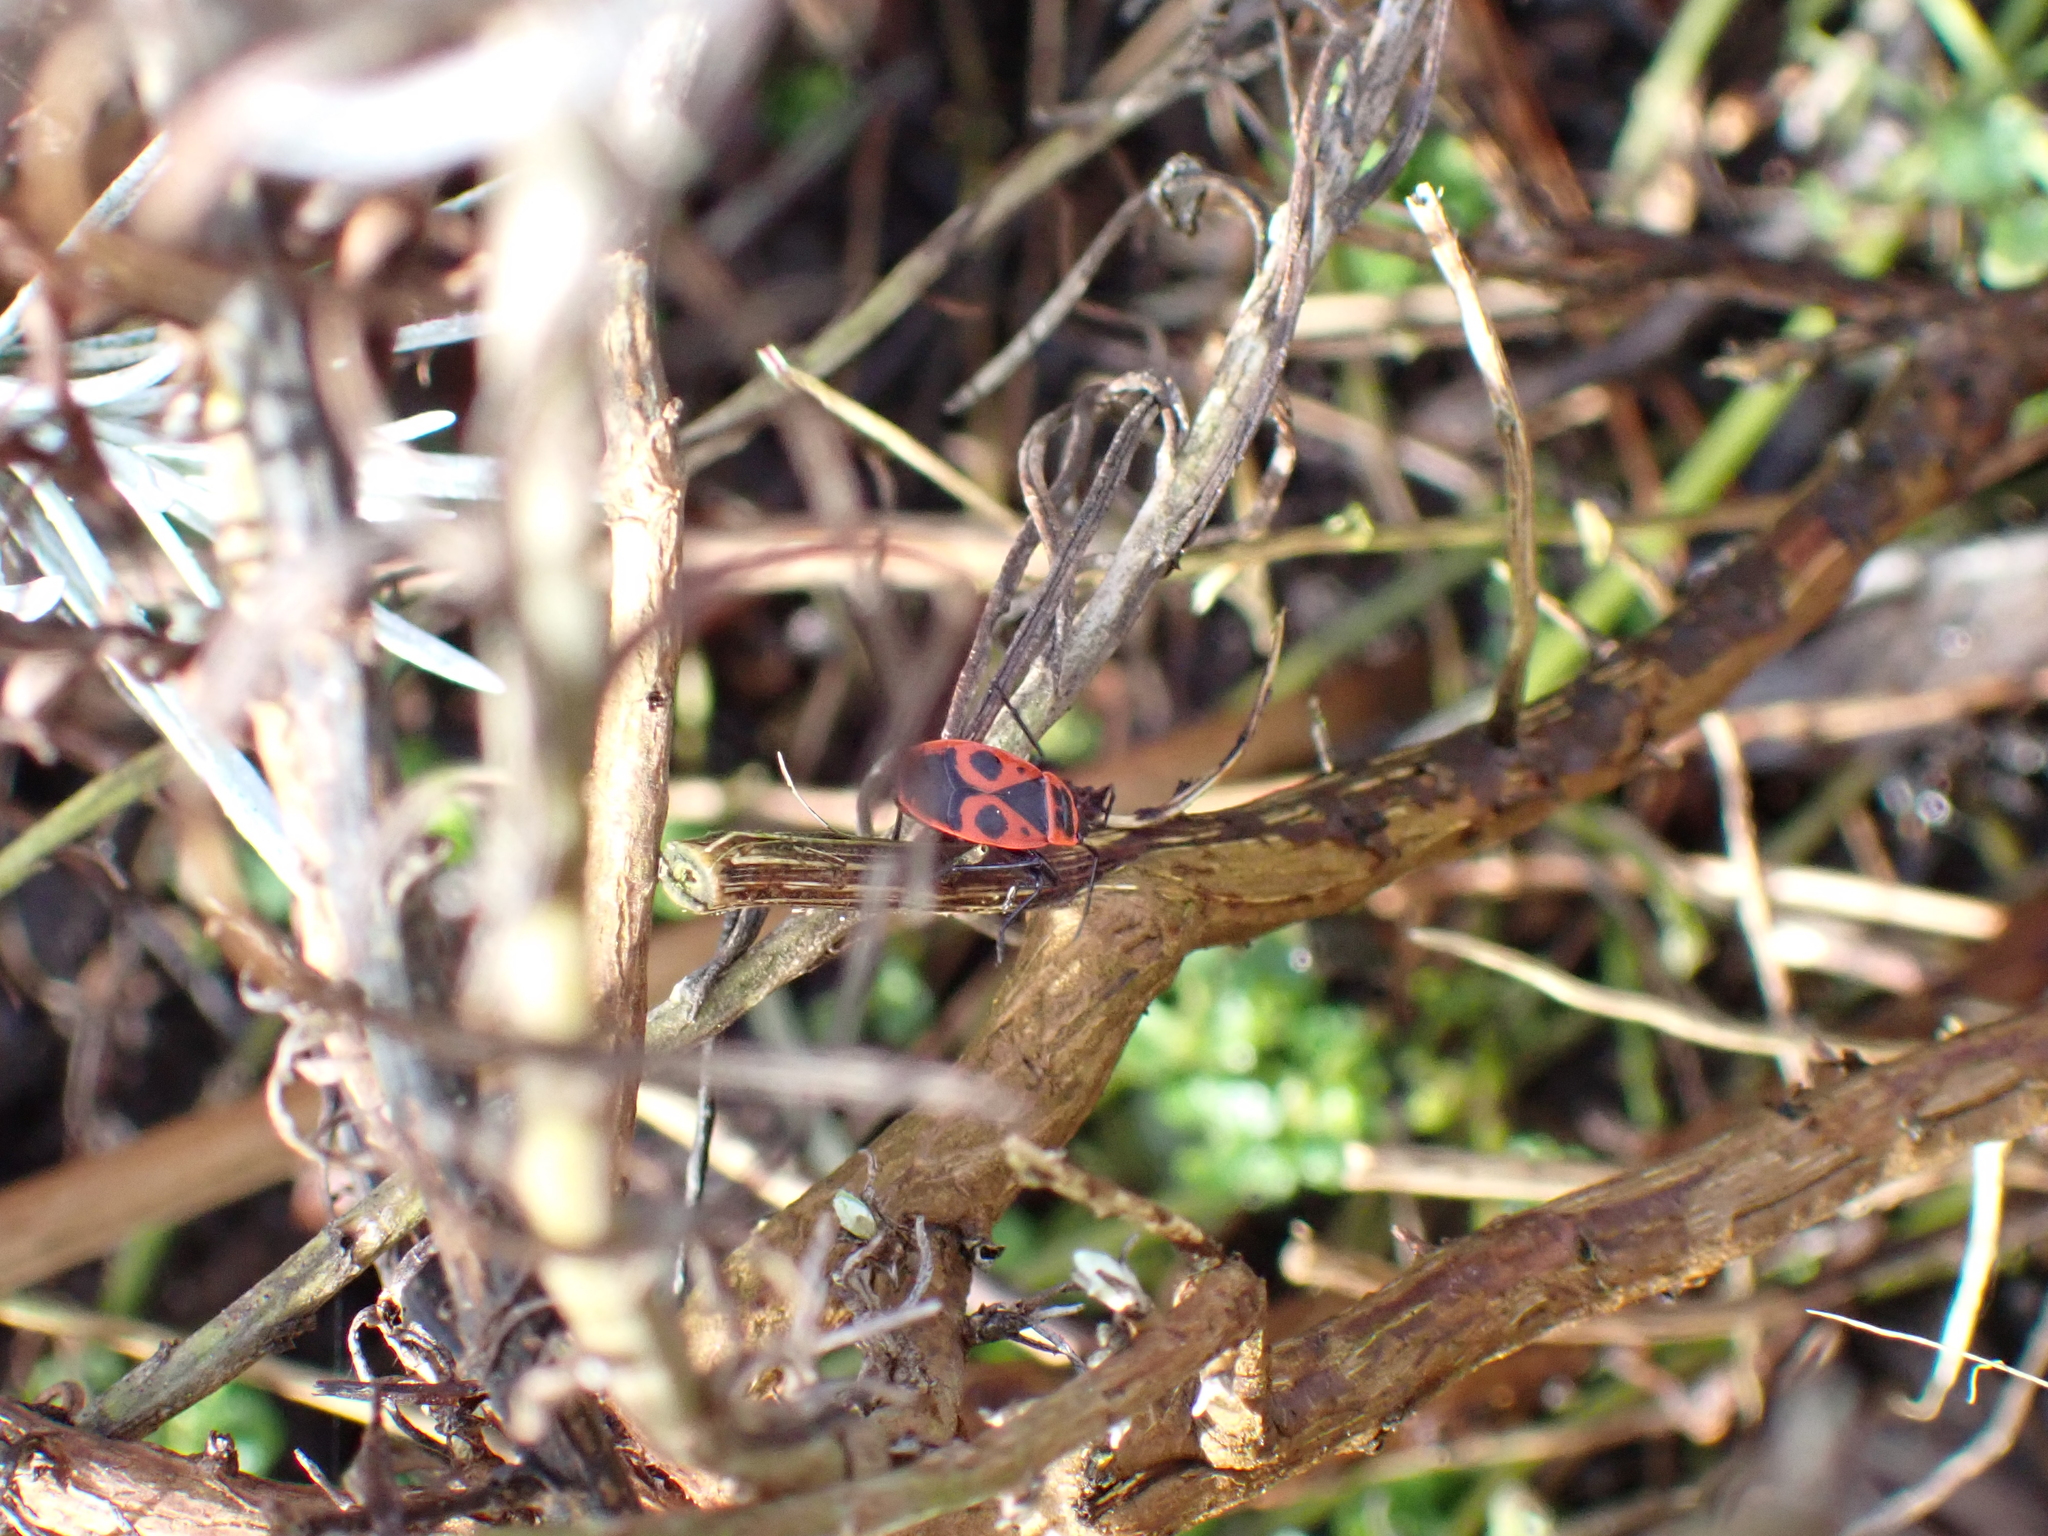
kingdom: Animalia
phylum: Arthropoda
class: Insecta
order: Hemiptera
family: Pyrrhocoridae
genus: Pyrrhocoris
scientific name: Pyrrhocoris apterus
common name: Firebug
